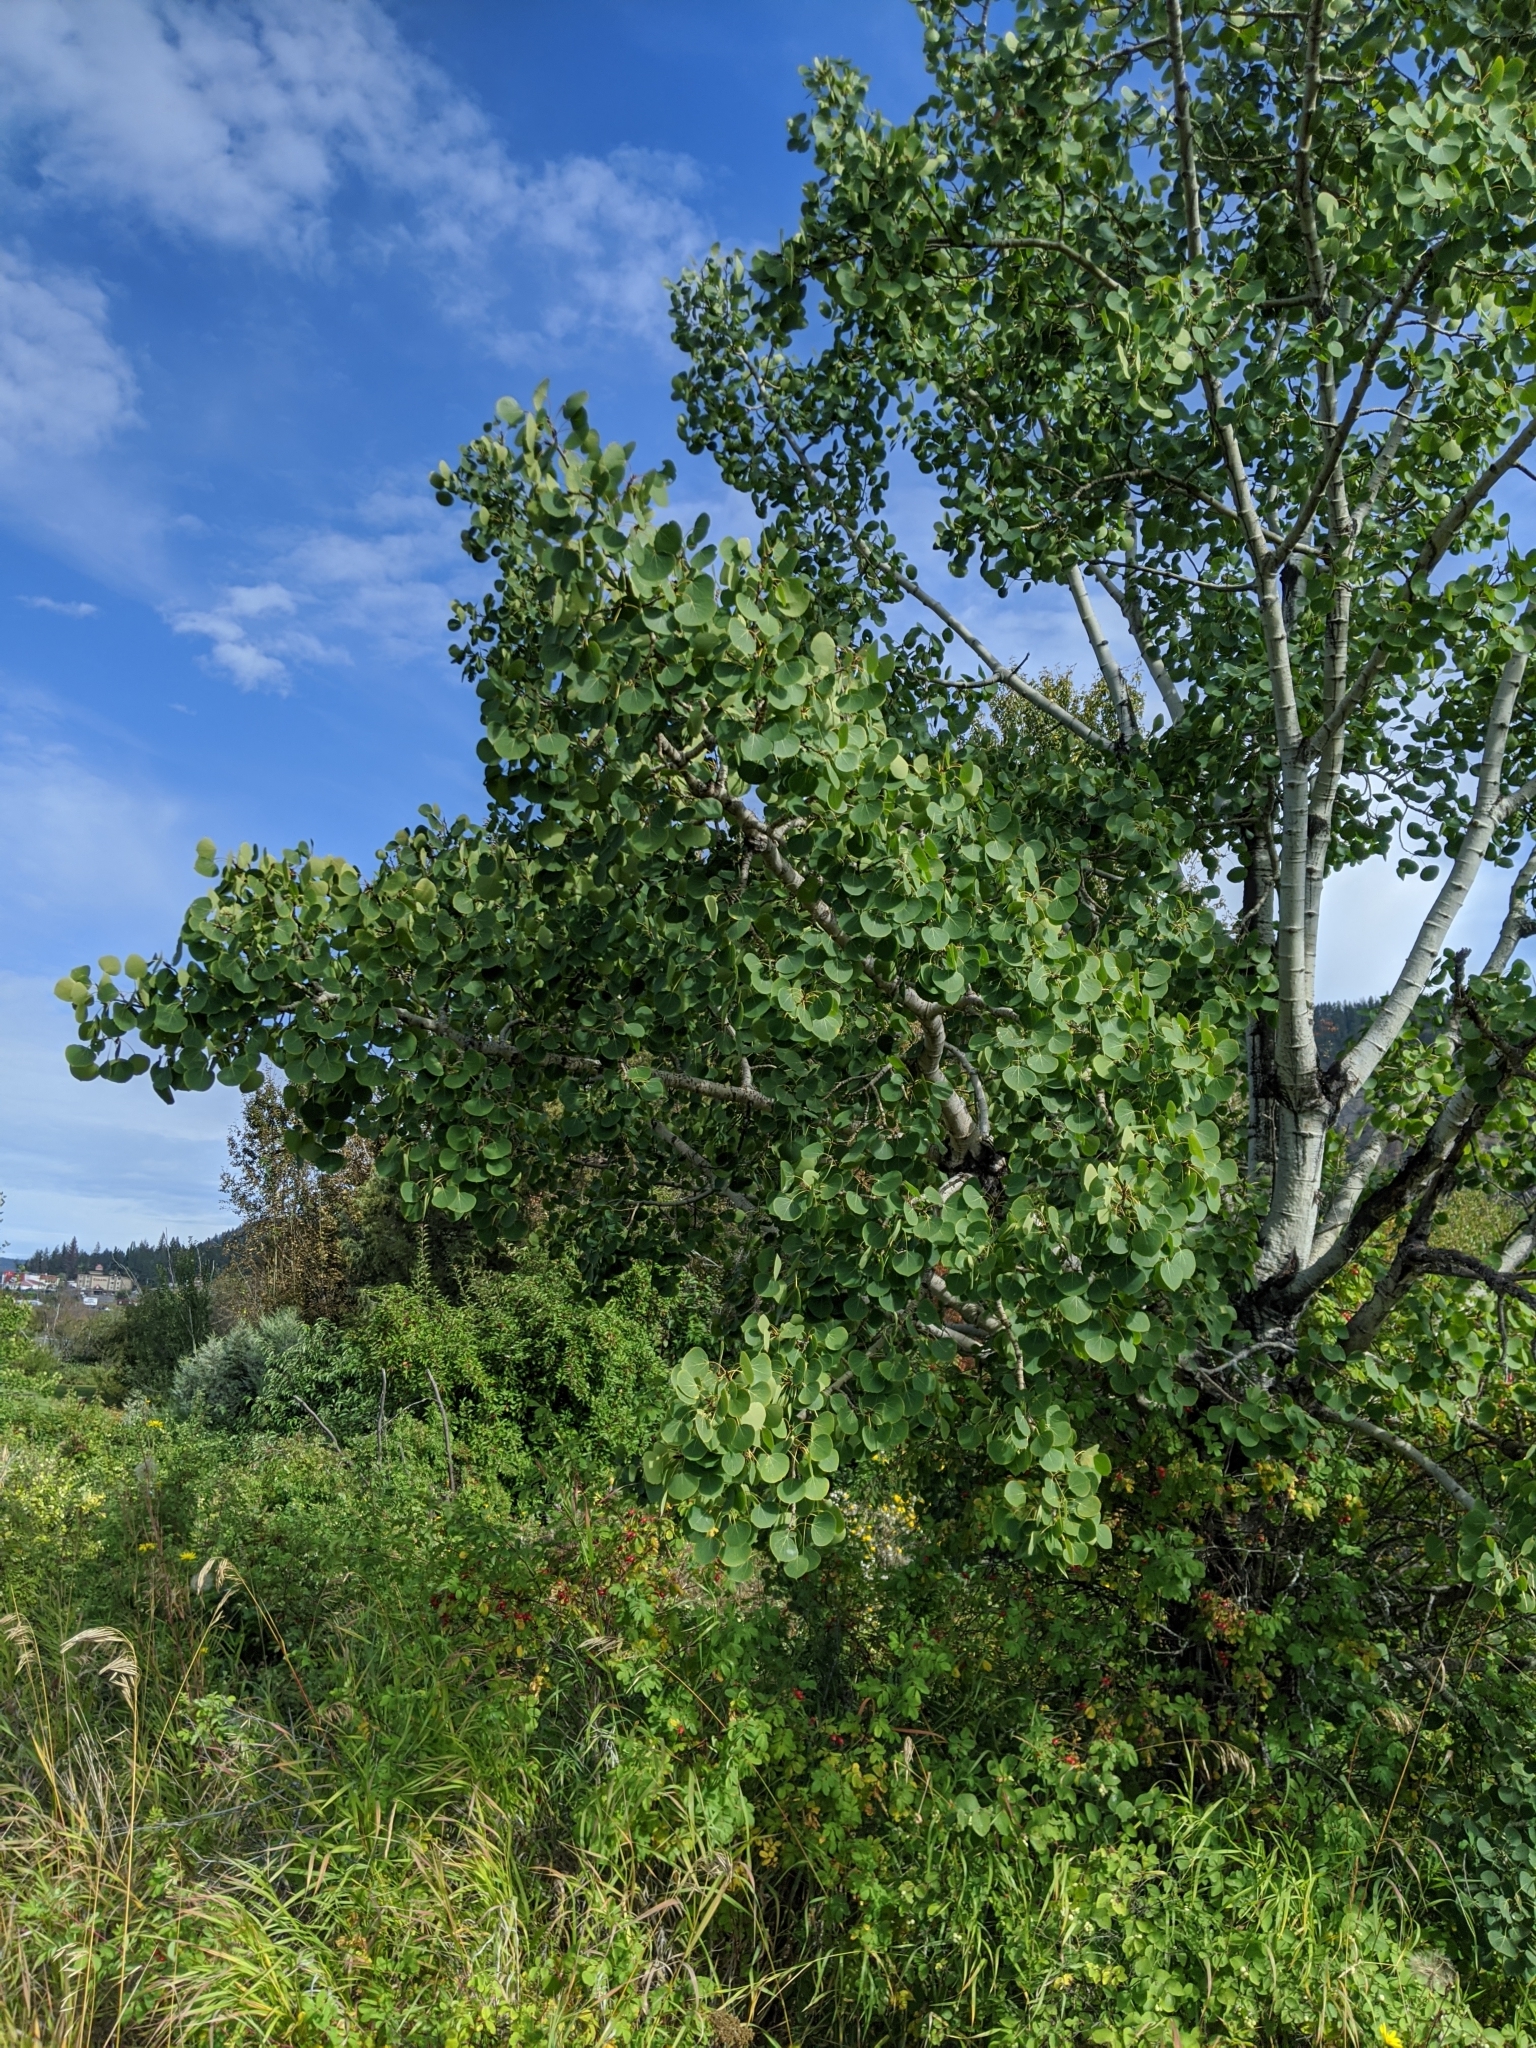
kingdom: Plantae
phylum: Tracheophyta
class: Magnoliopsida
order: Malpighiales
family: Salicaceae
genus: Populus
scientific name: Populus tremuloides
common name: Quaking aspen
